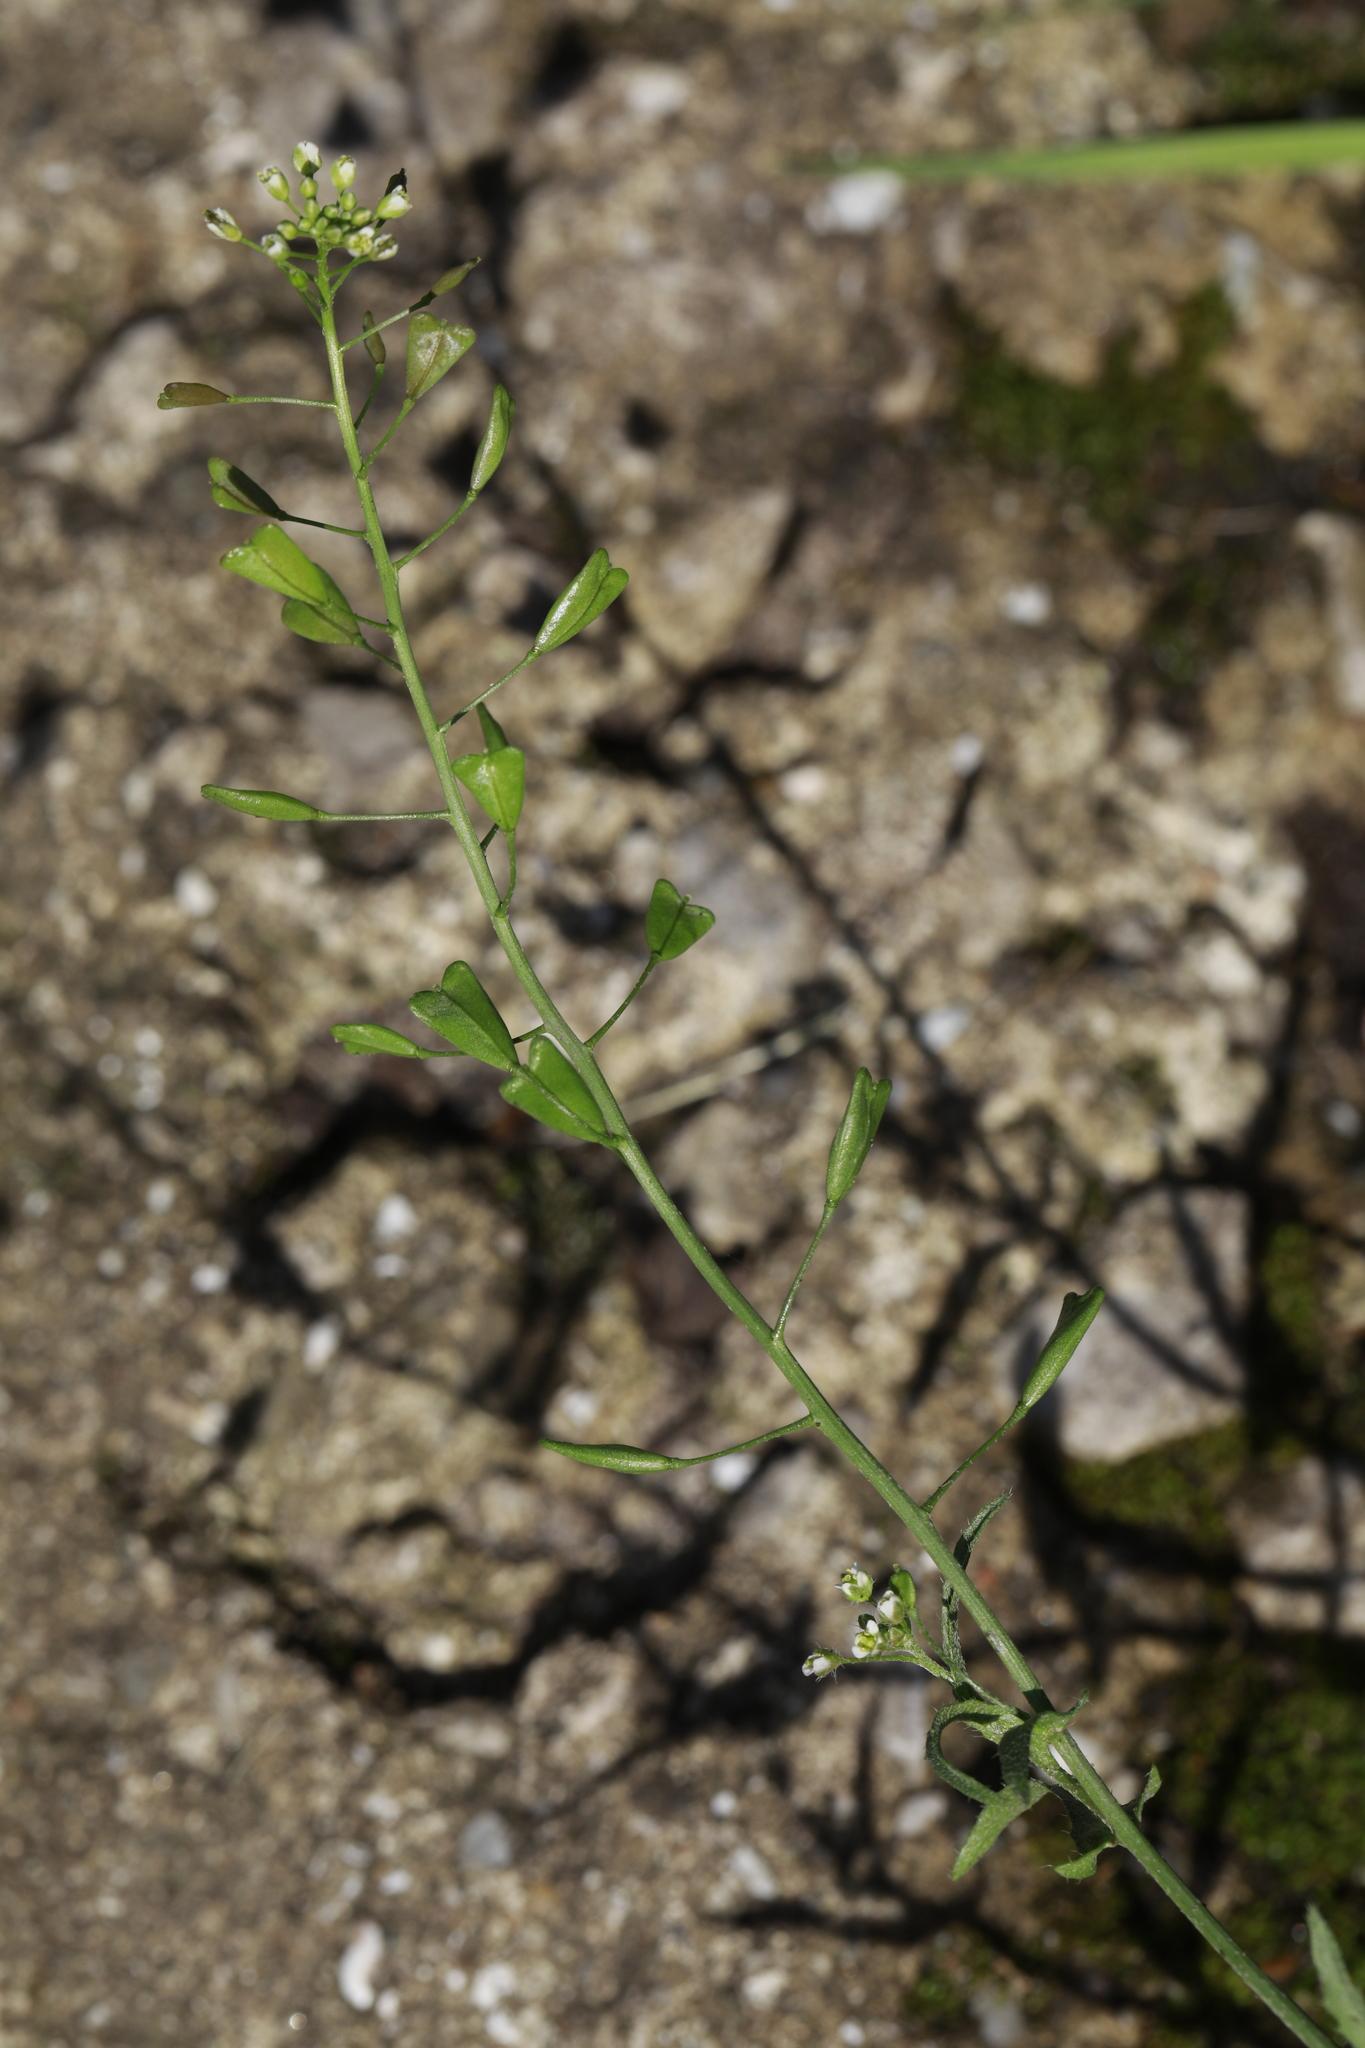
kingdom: Plantae
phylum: Tracheophyta
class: Magnoliopsida
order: Brassicales
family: Brassicaceae
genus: Capsella
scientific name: Capsella bursa-pastoris
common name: Shepherd's purse
